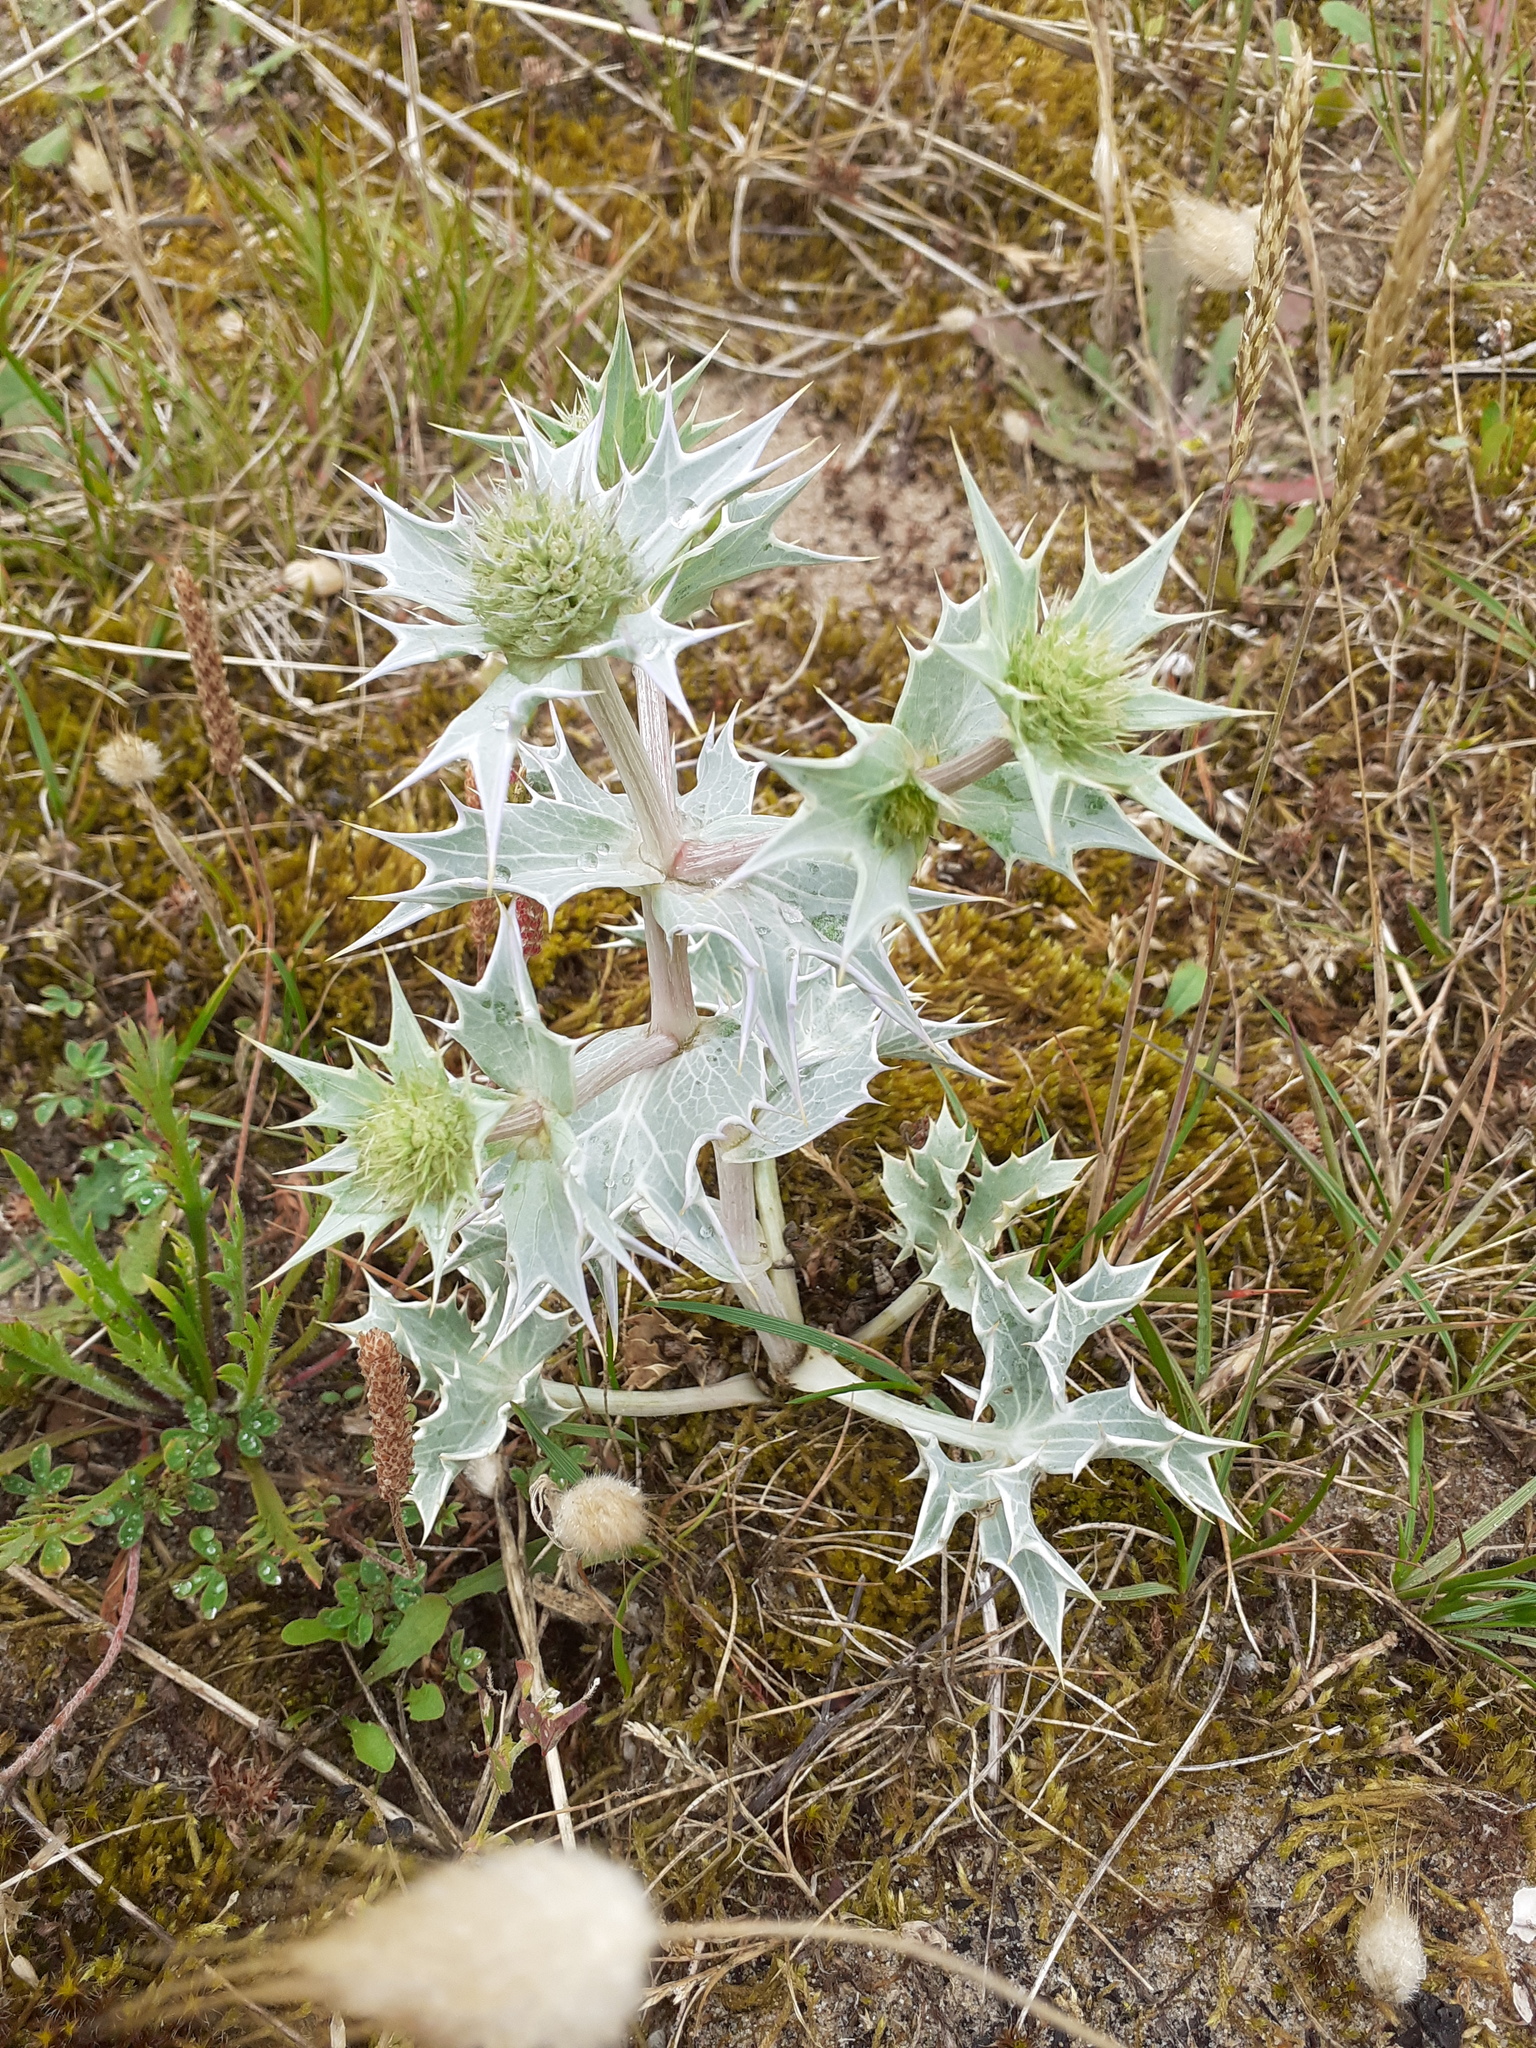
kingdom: Plantae
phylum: Tracheophyta
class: Magnoliopsida
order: Apiales
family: Apiaceae
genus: Eryngium
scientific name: Eryngium maritimum
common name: Sea-holly
